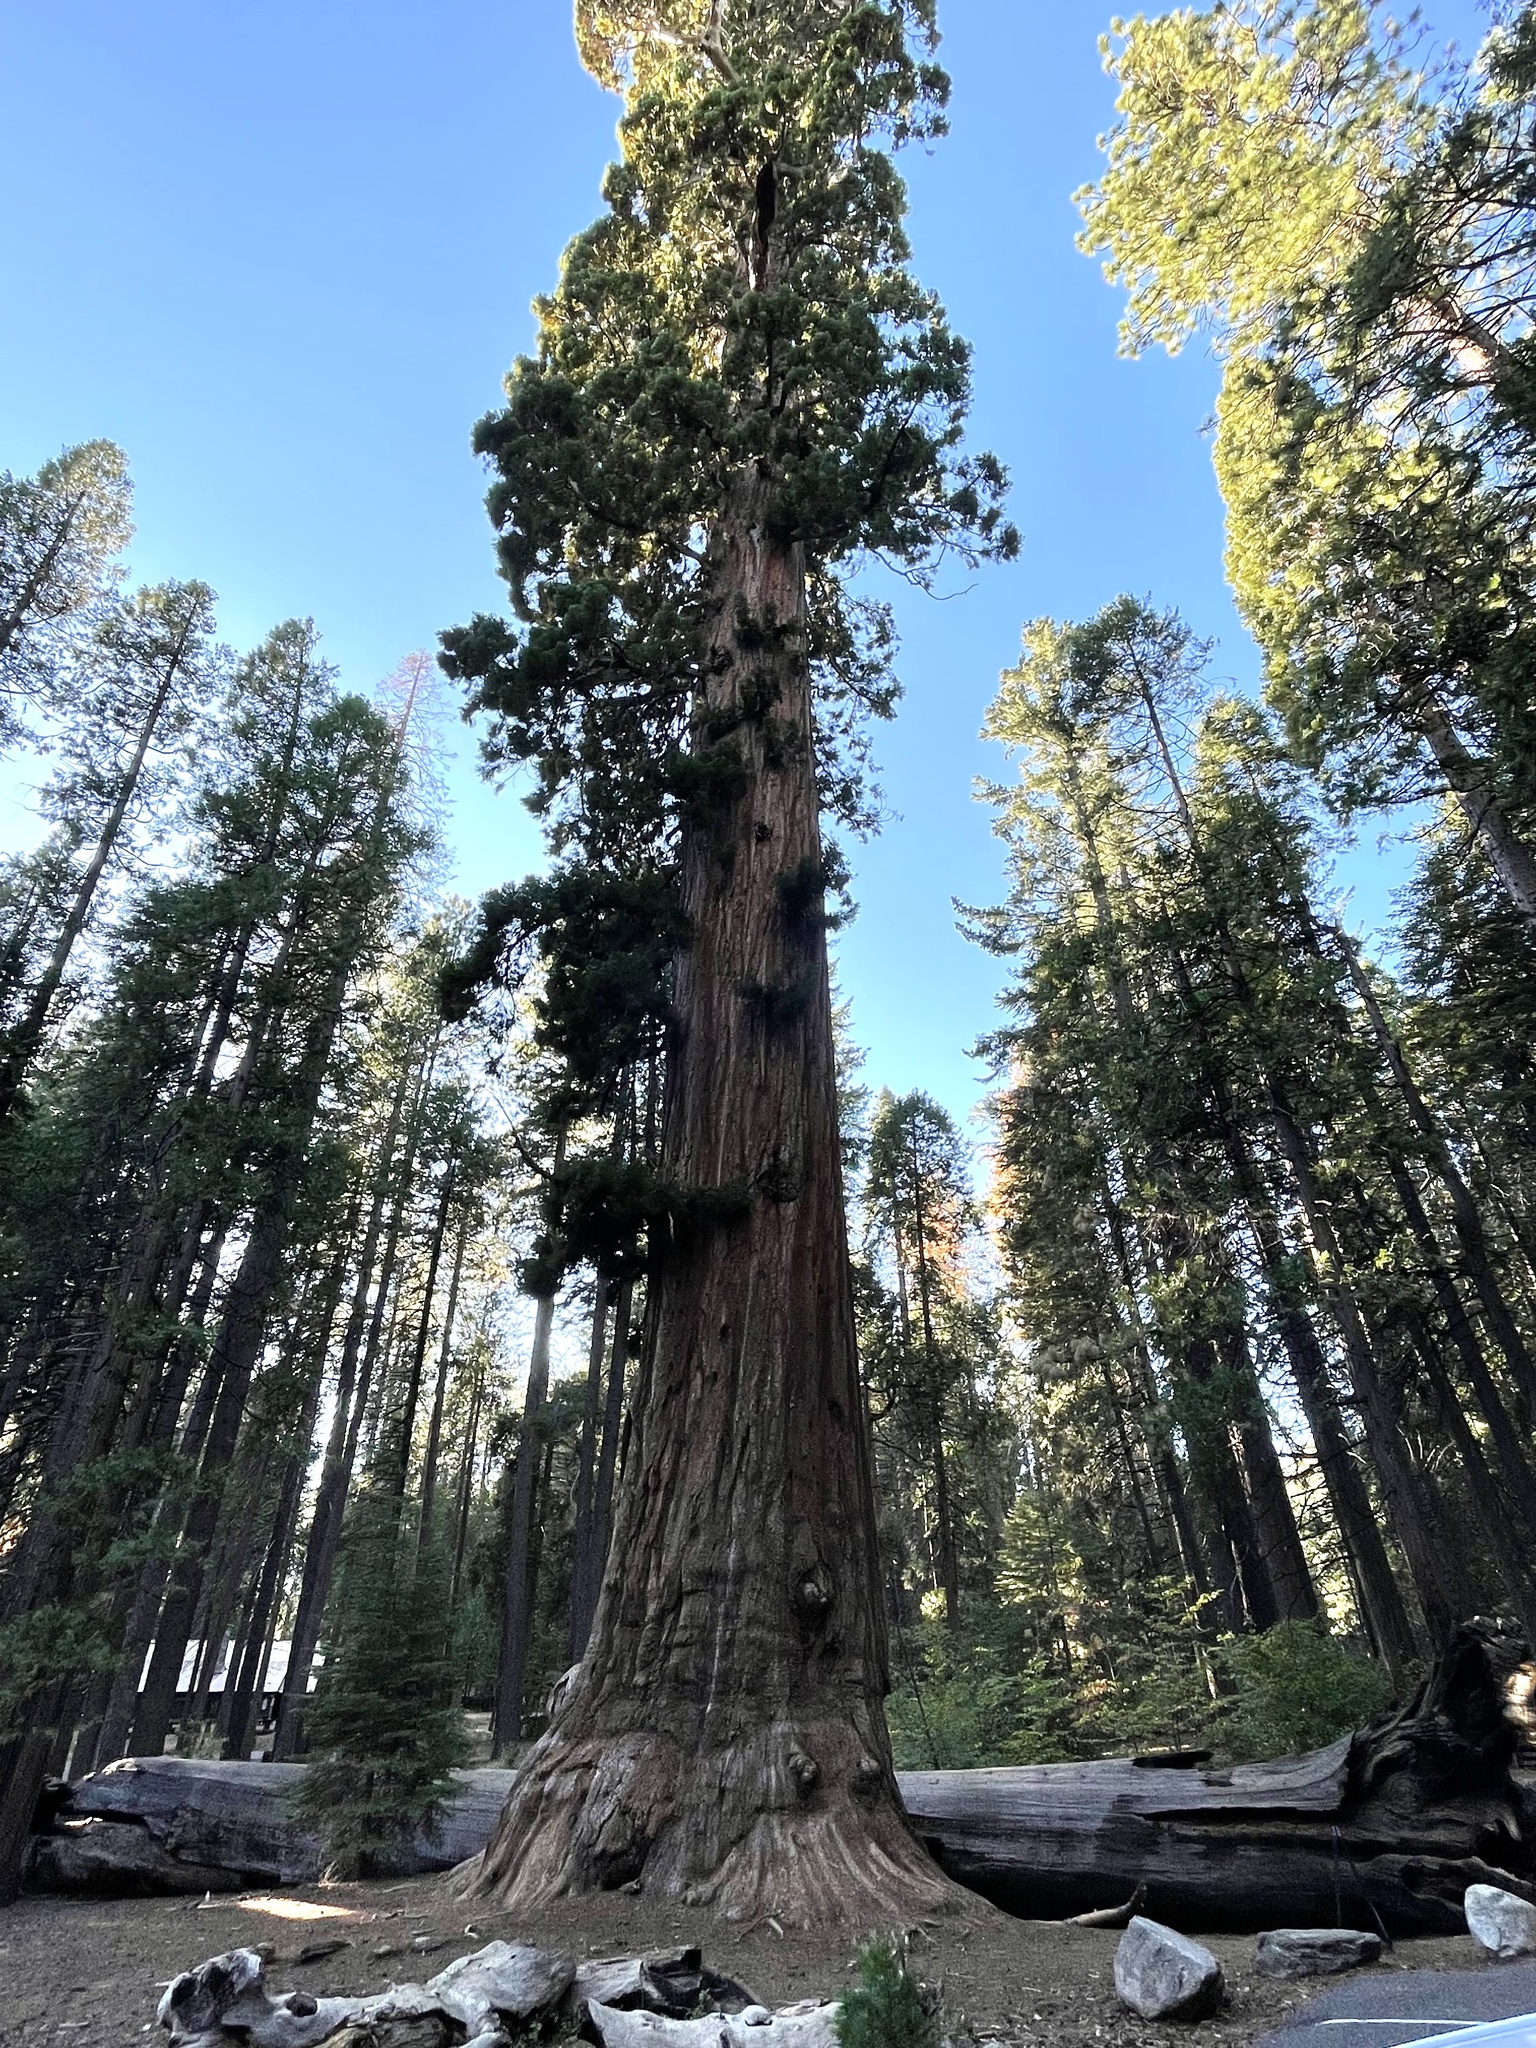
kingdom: Plantae
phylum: Tracheophyta
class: Pinopsida
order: Pinales
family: Cupressaceae
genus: Sequoiadendron
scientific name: Sequoiadendron giganteum
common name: Wellingtonia
